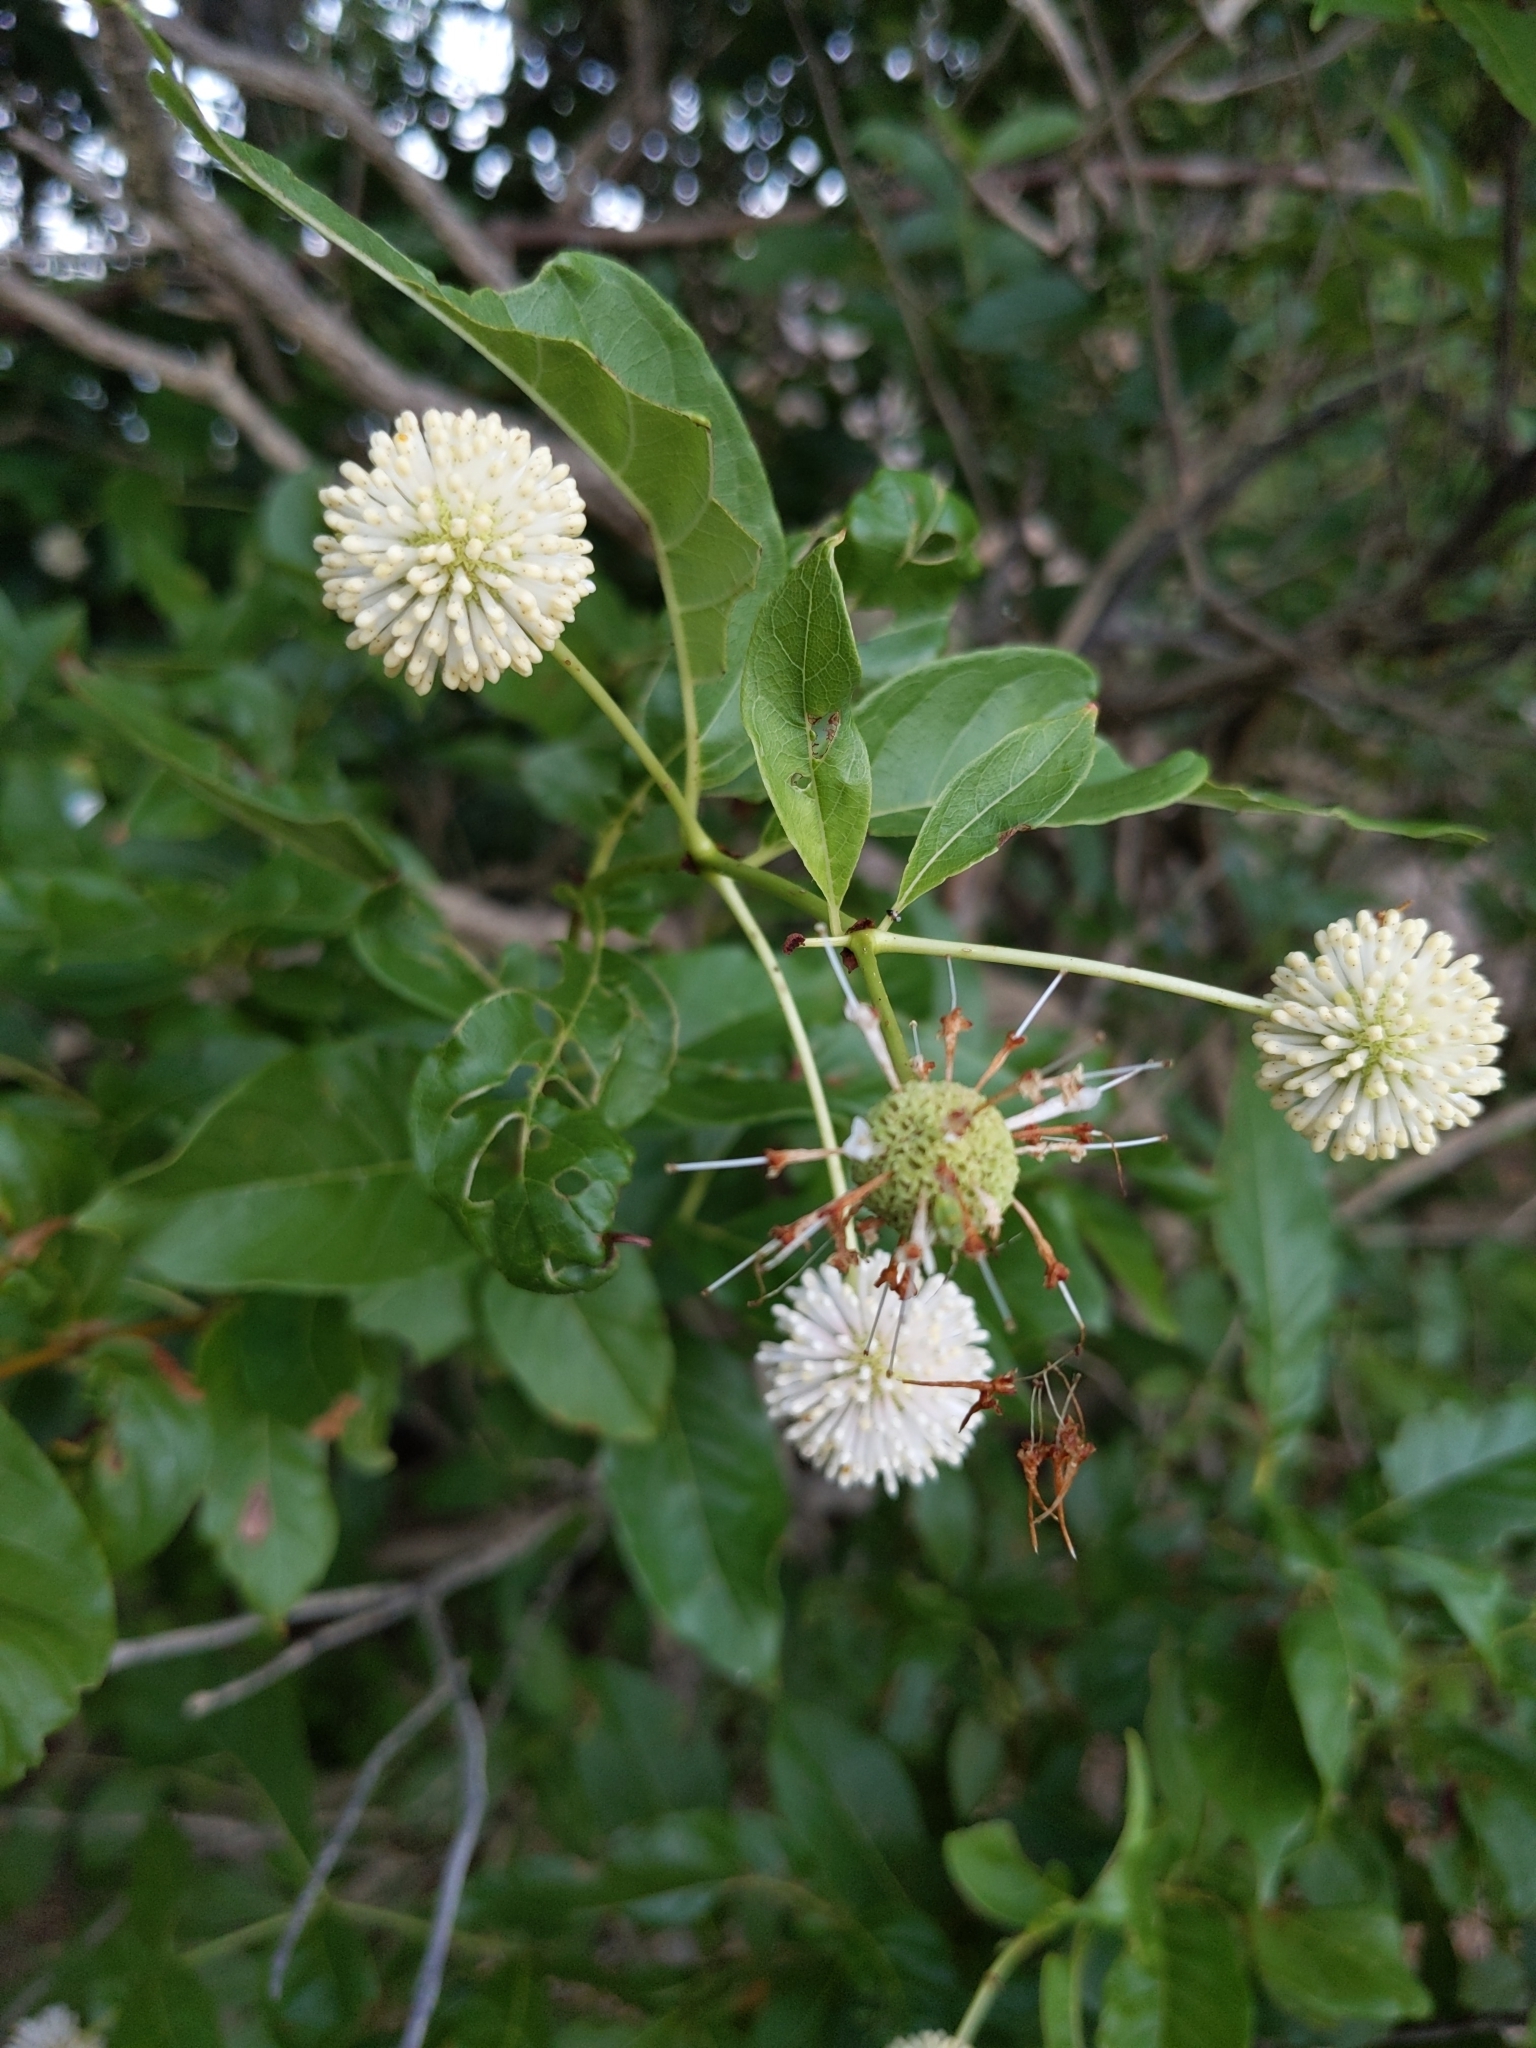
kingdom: Plantae
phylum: Tracheophyta
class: Magnoliopsida
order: Gentianales
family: Rubiaceae
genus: Cephalanthus
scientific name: Cephalanthus occidentalis
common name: Button-willow
